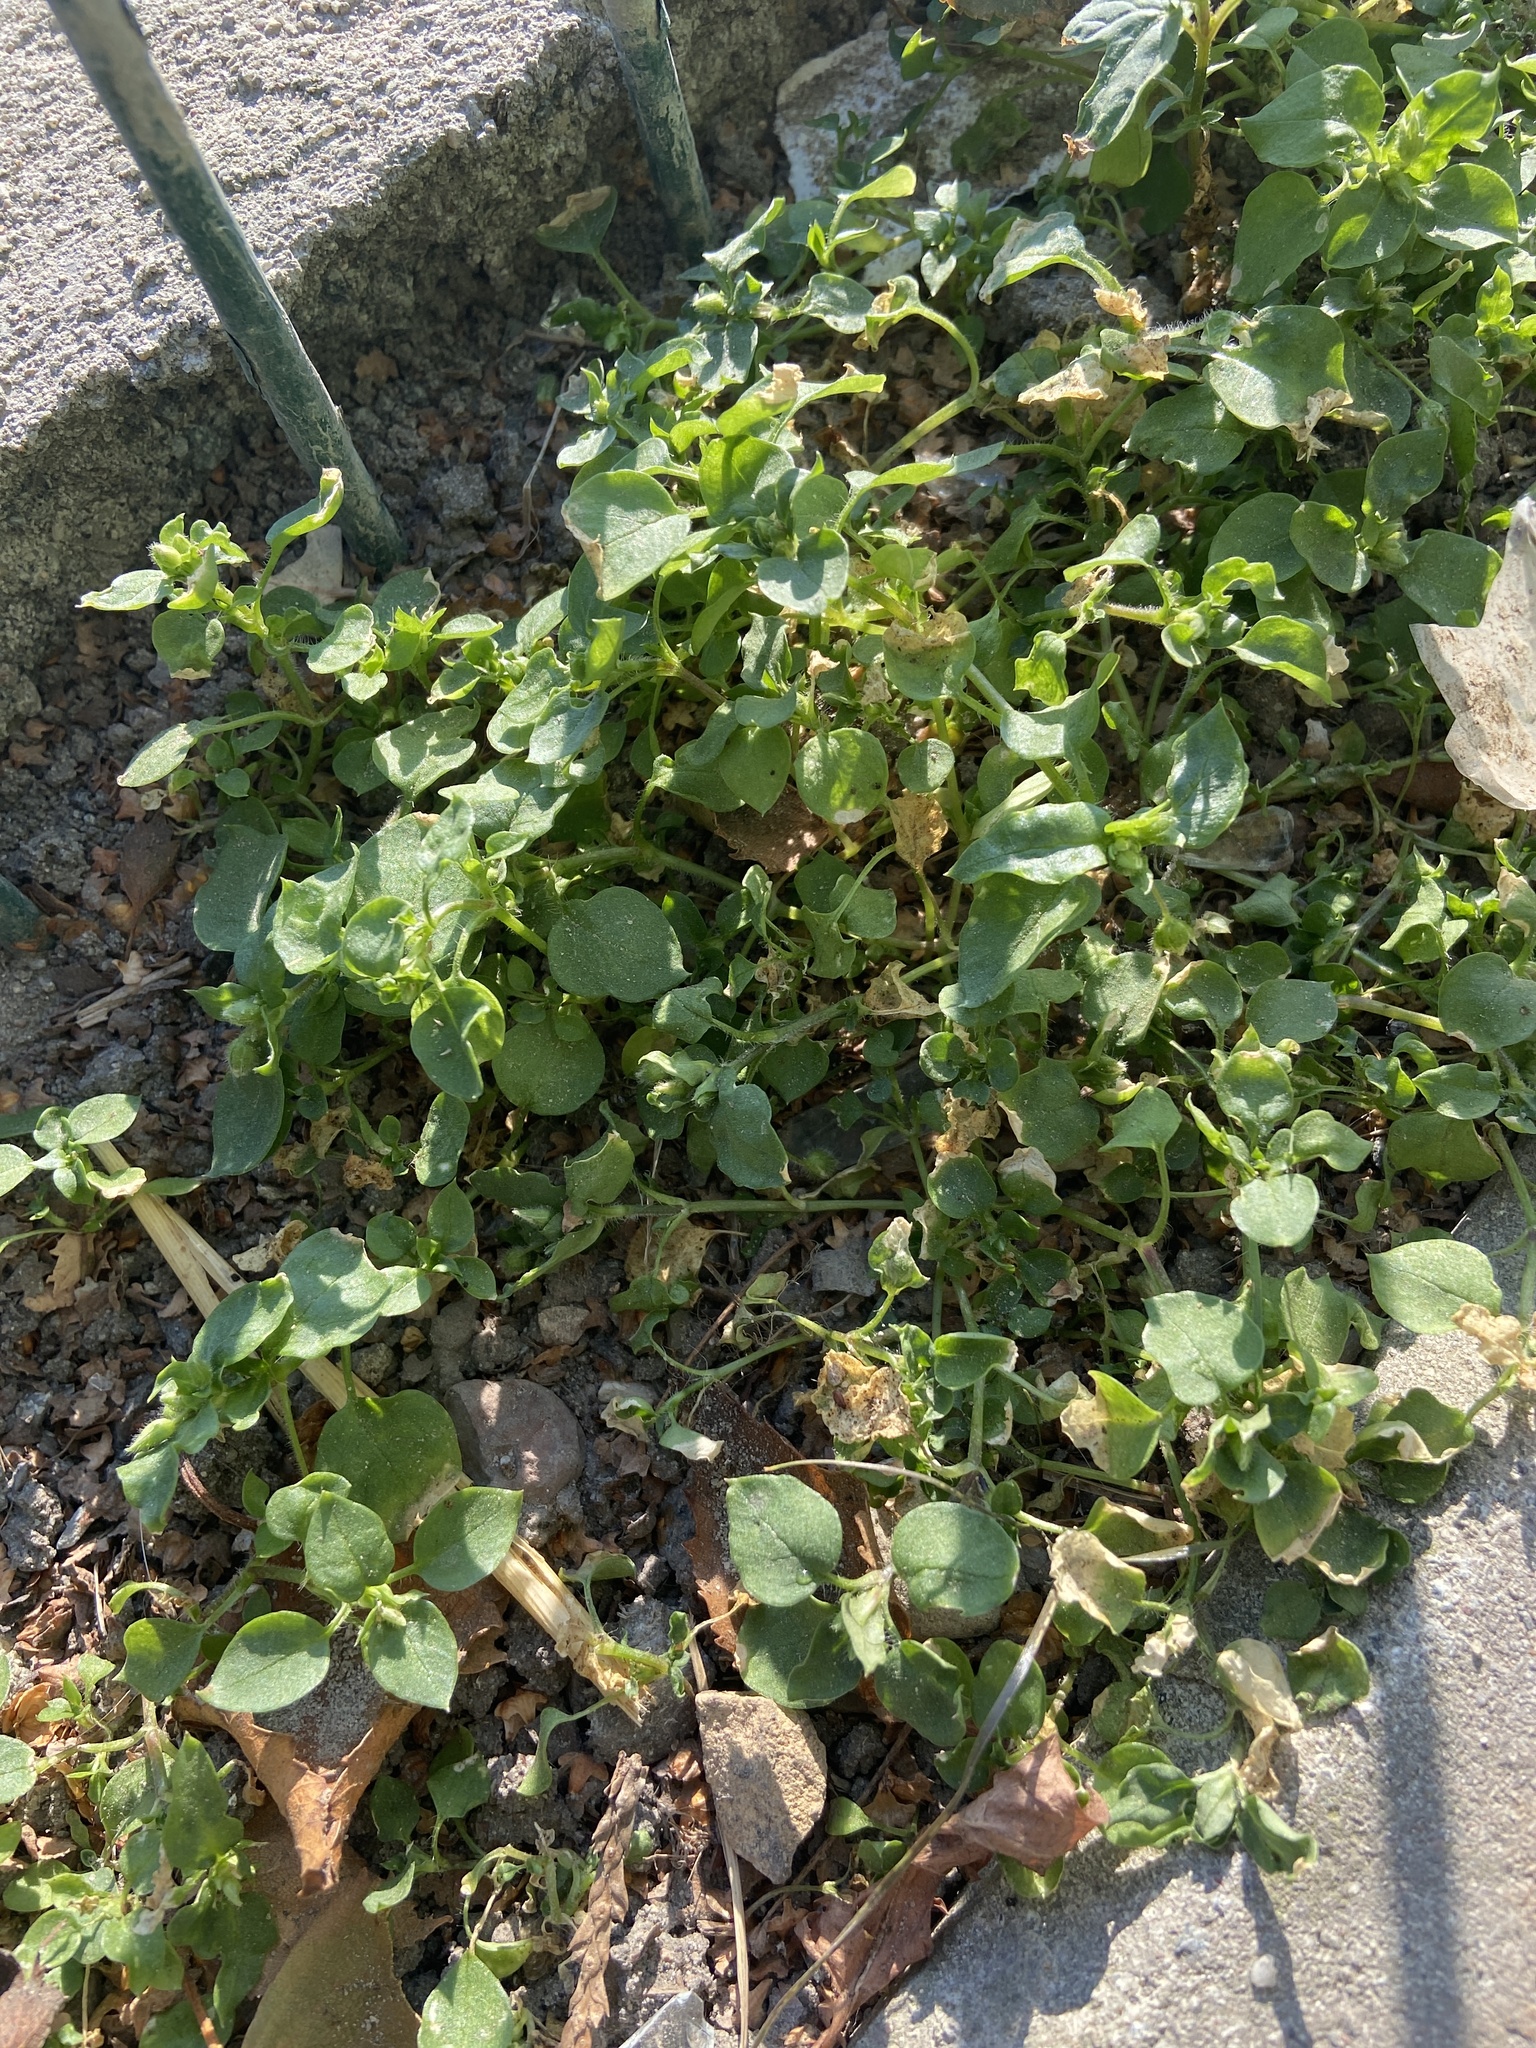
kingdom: Plantae
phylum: Tracheophyta
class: Magnoliopsida
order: Caryophyllales
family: Caryophyllaceae
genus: Stellaria
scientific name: Stellaria media
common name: Common chickweed
